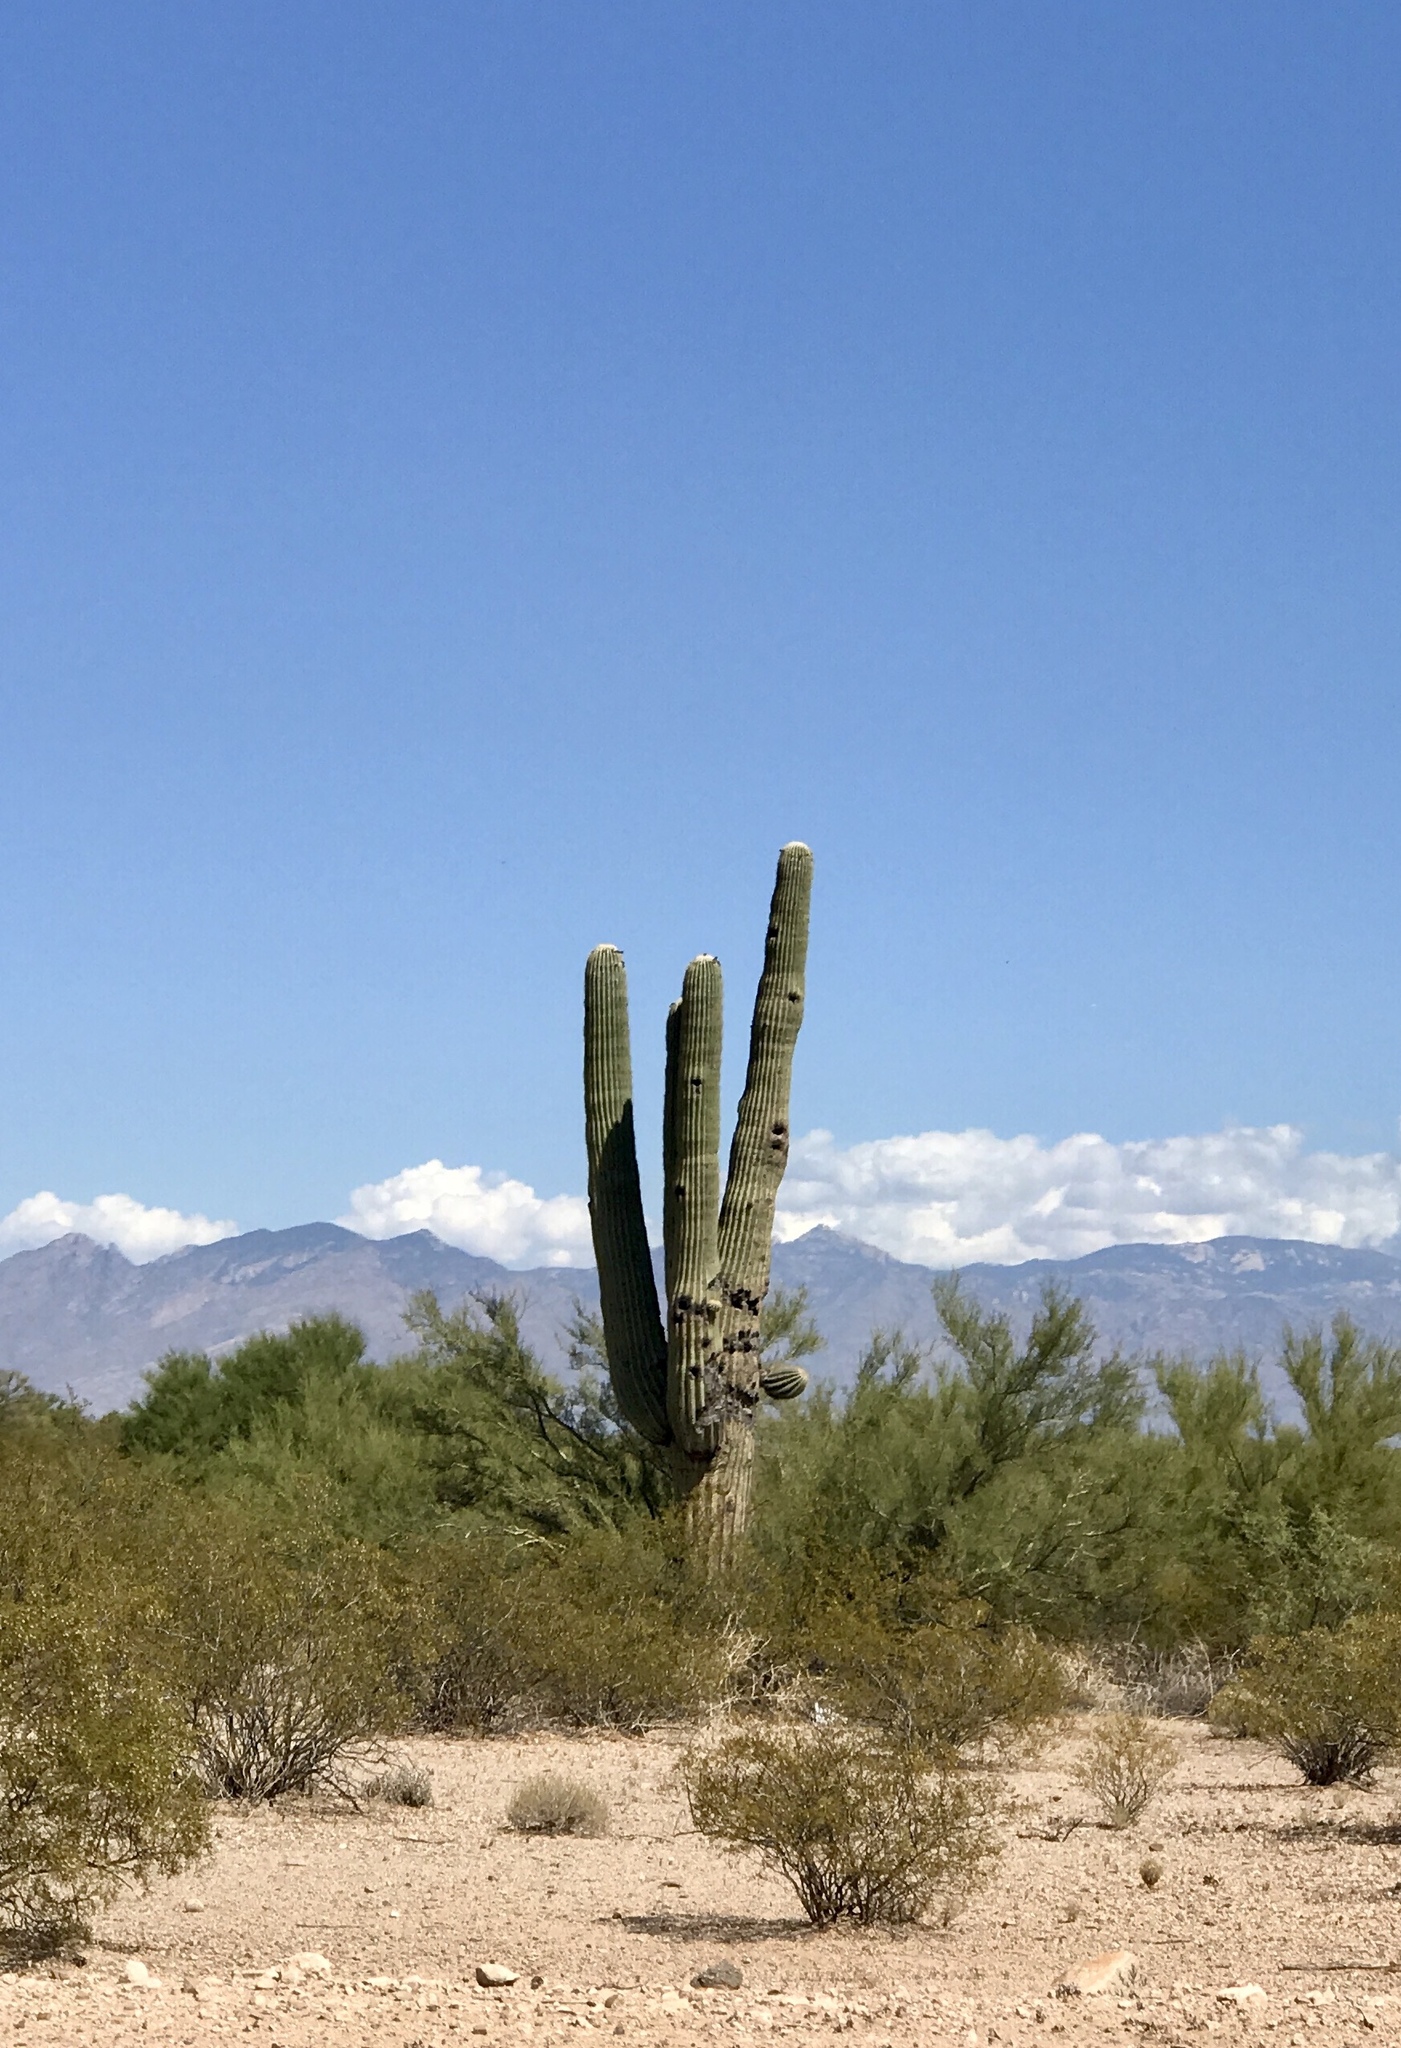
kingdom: Plantae
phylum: Tracheophyta
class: Magnoliopsida
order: Caryophyllales
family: Cactaceae
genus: Carnegiea
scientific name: Carnegiea gigantea
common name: Saguaro
